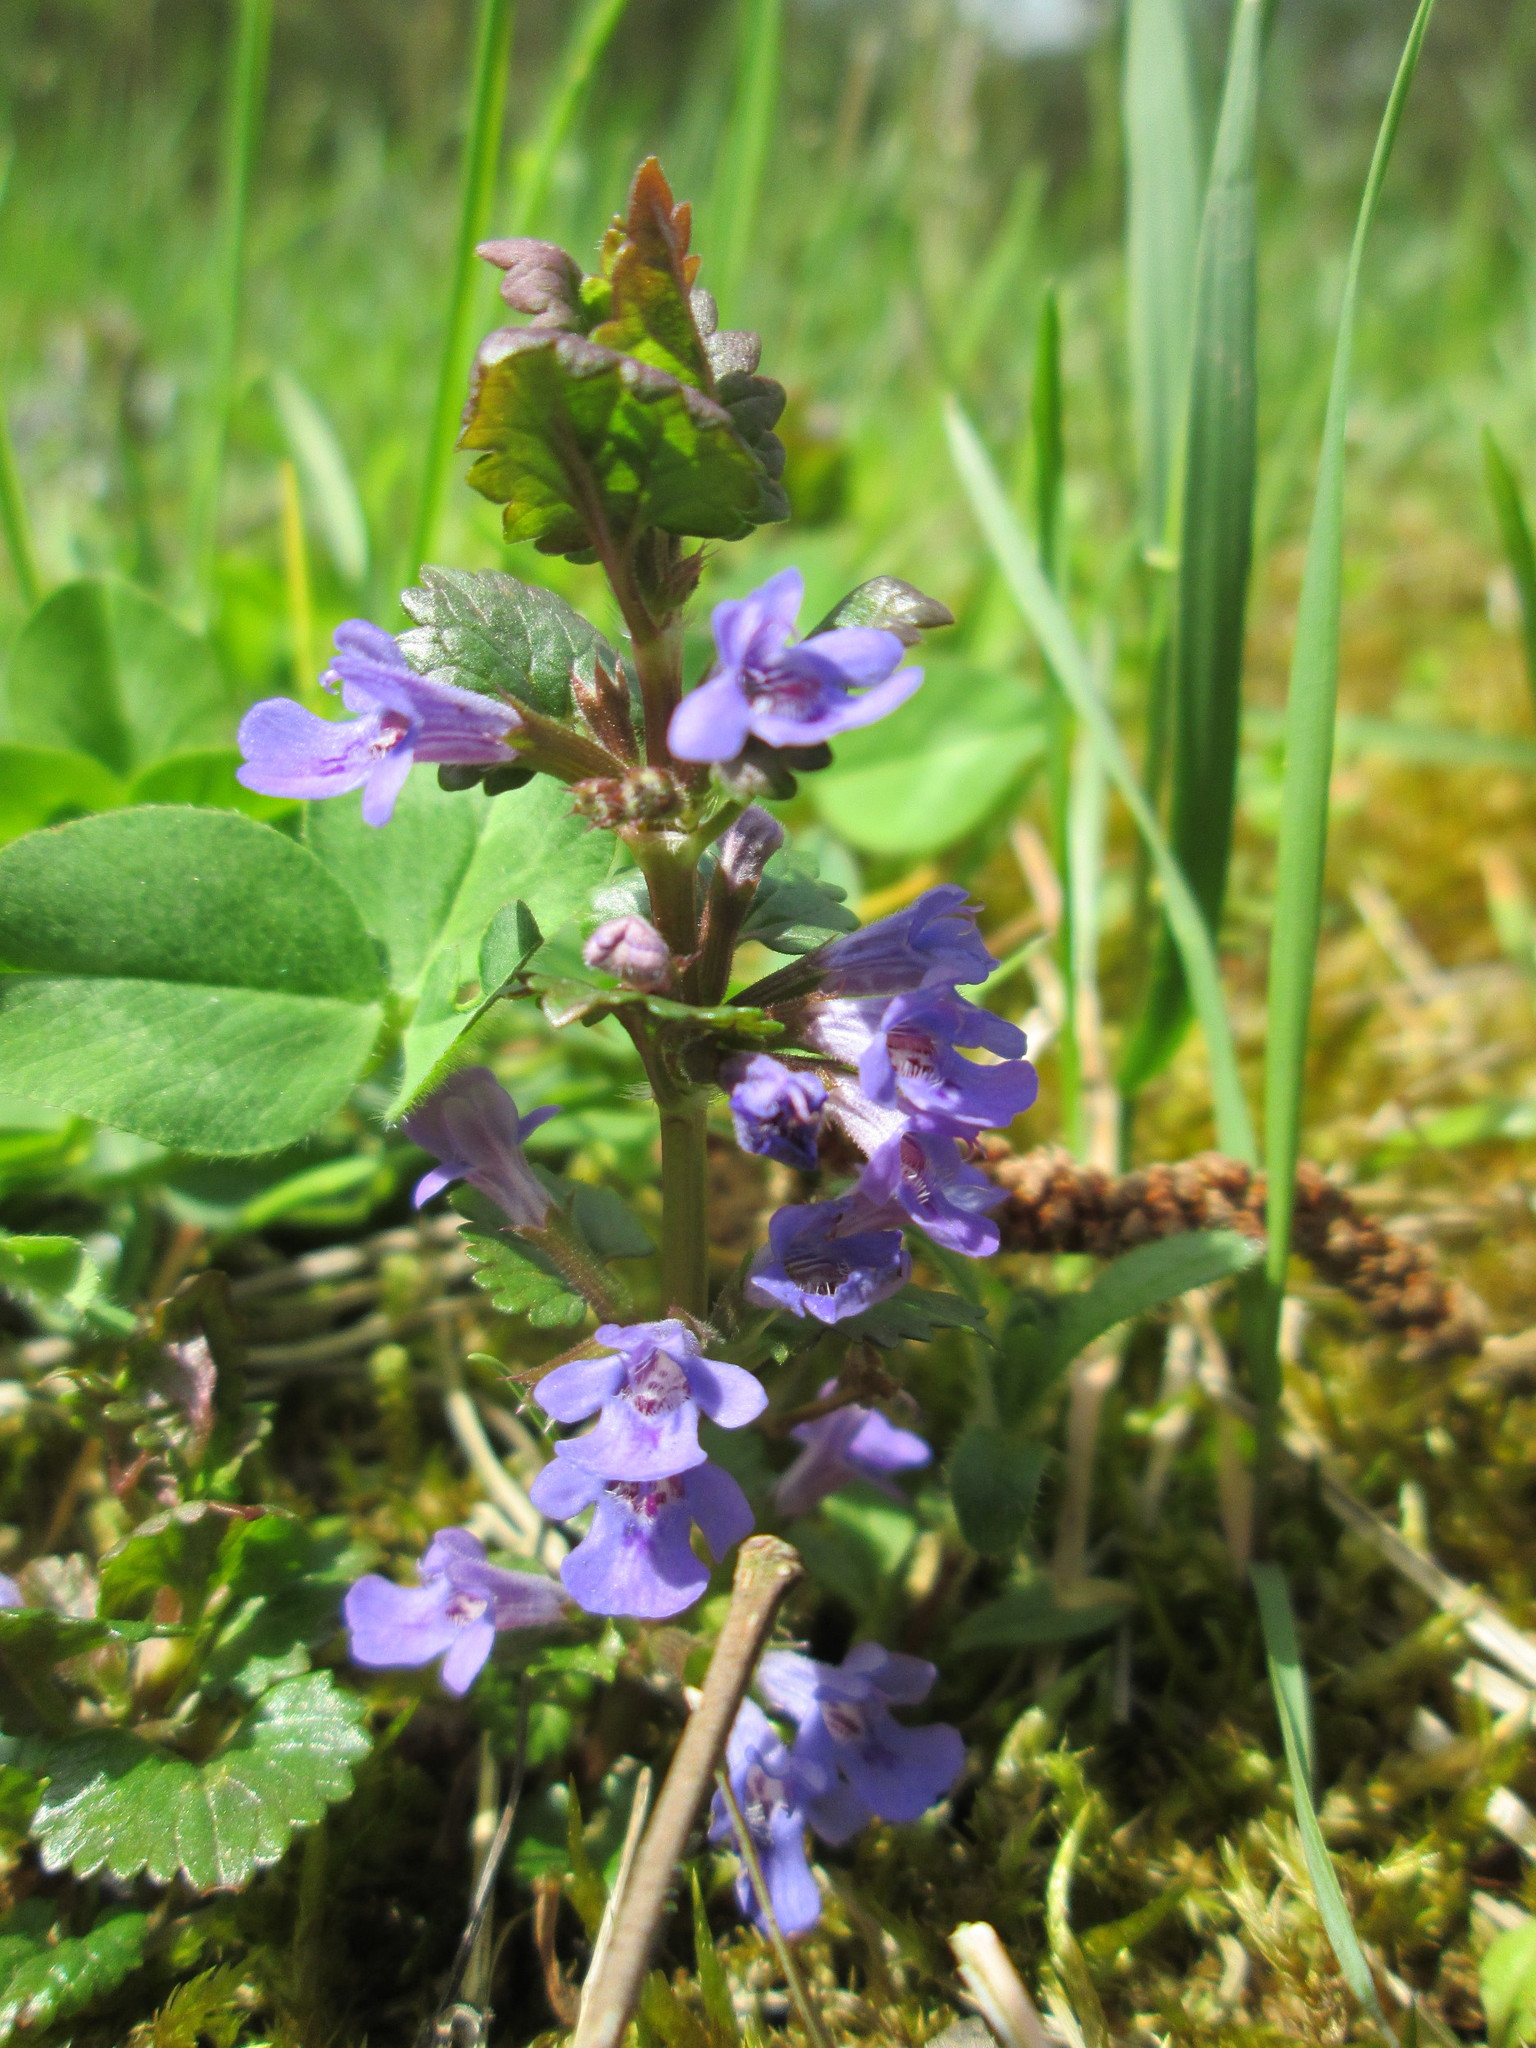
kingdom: Plantae
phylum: Tracheophyta
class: Magnoliopsida
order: Lamiales
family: Lamiaceae
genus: Glechoma
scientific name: Glechoma hederacea
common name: Ground ivy
